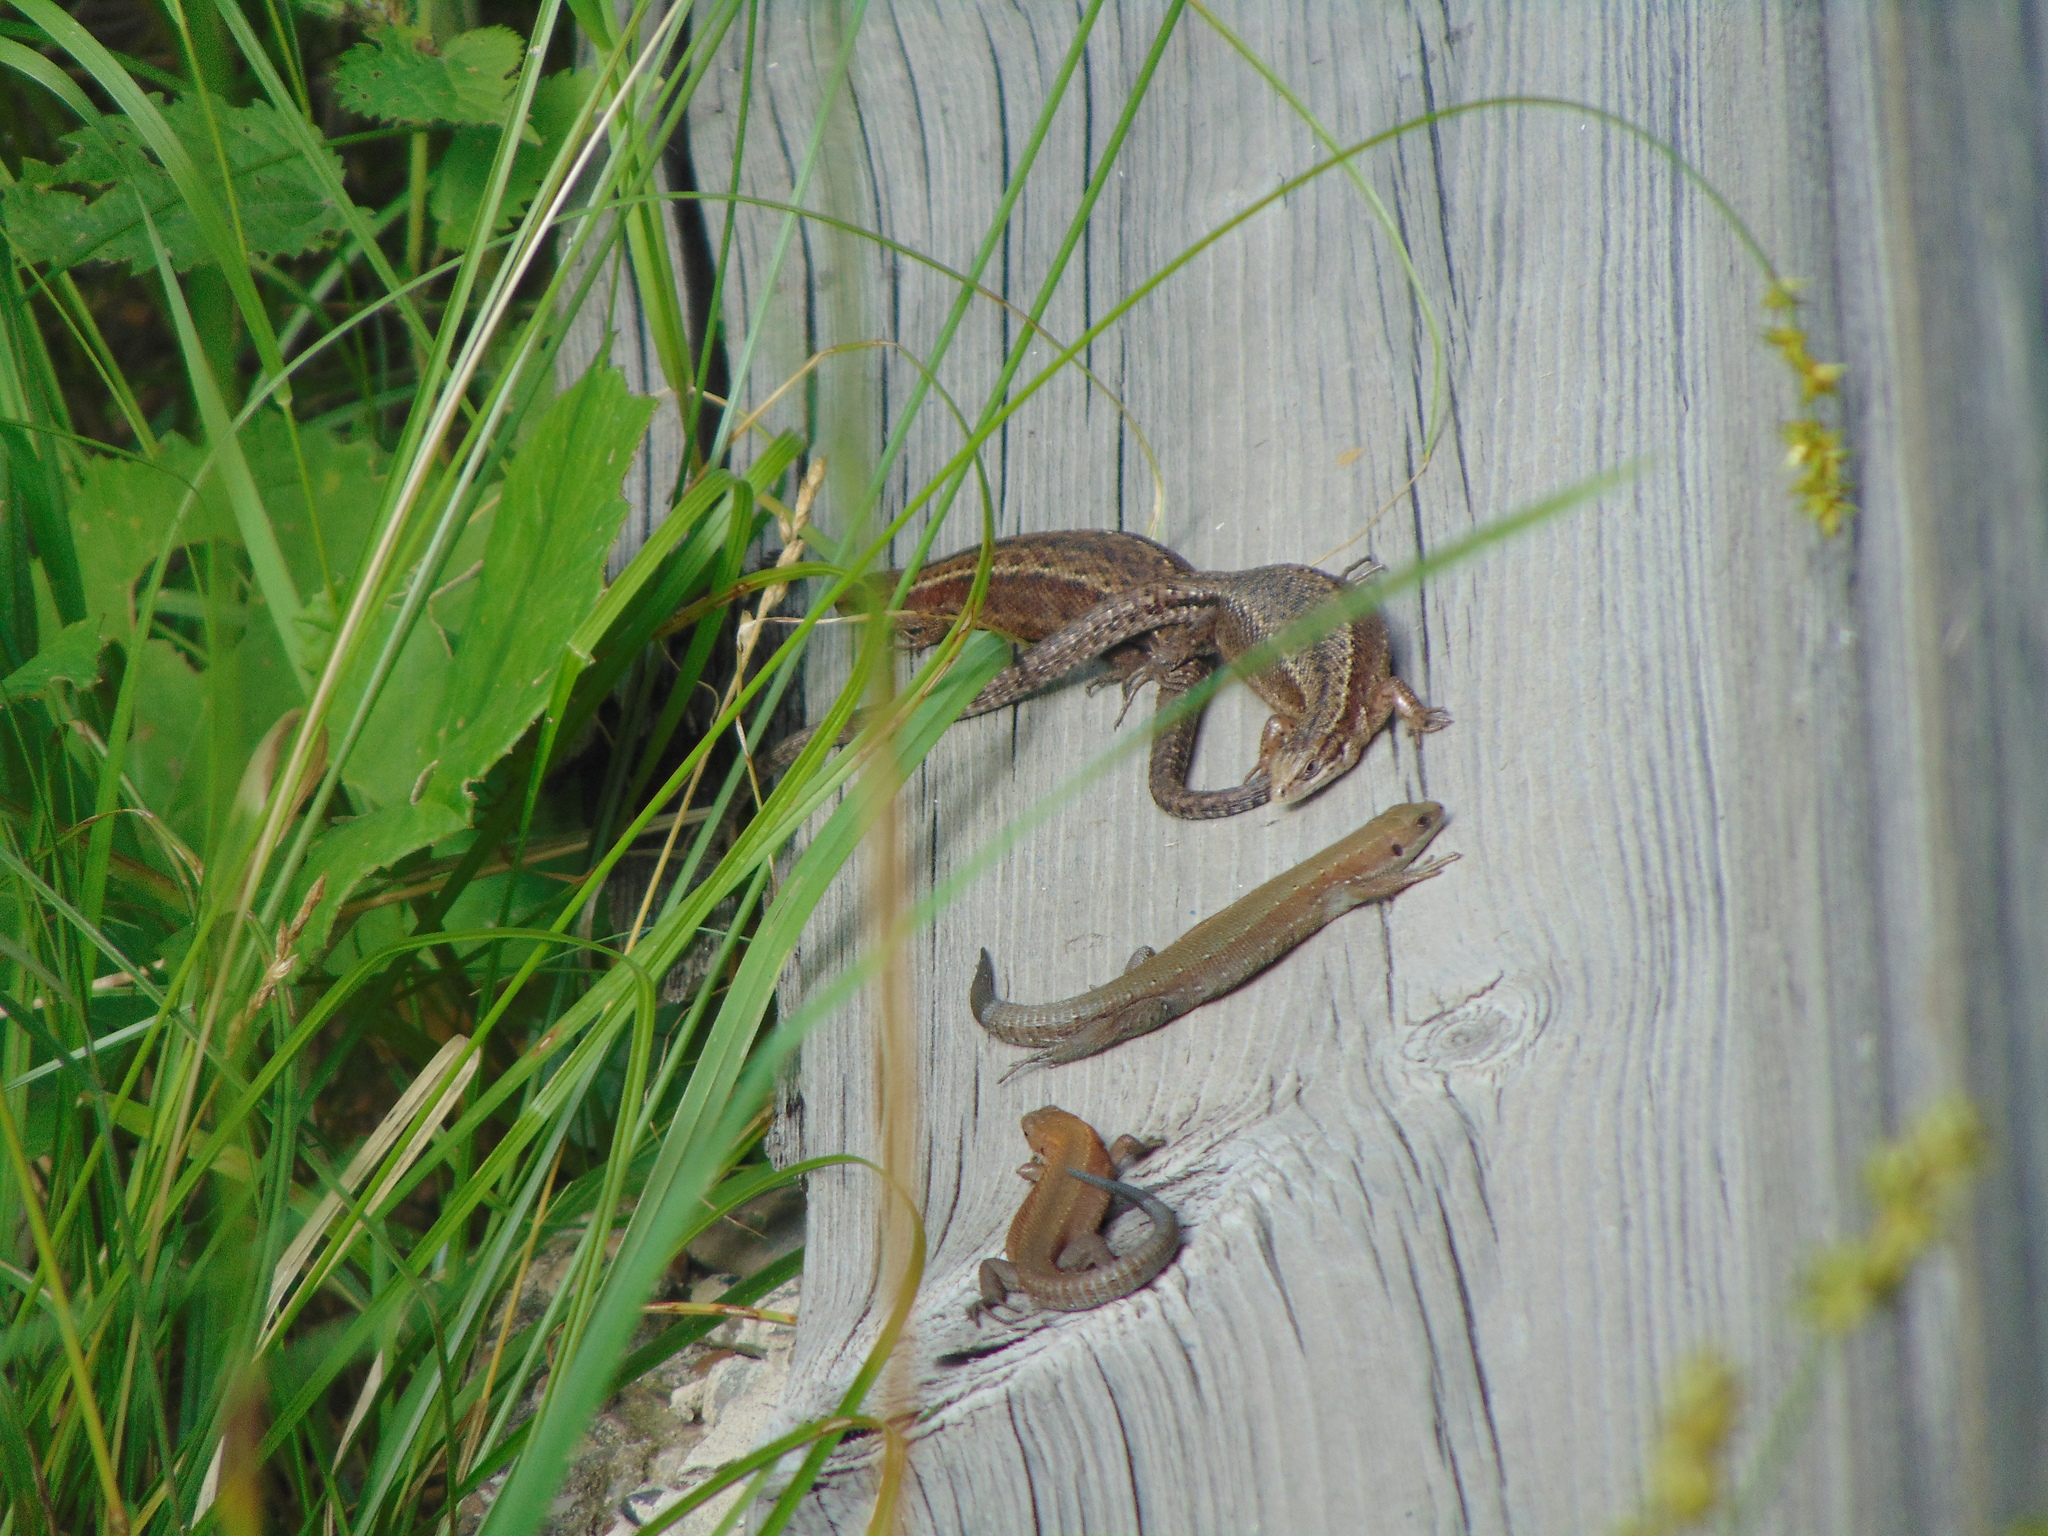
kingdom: Animalia
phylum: Chordata
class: Squamata
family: Lacertidae
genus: Zootoca
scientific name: Zootoca vivipara
